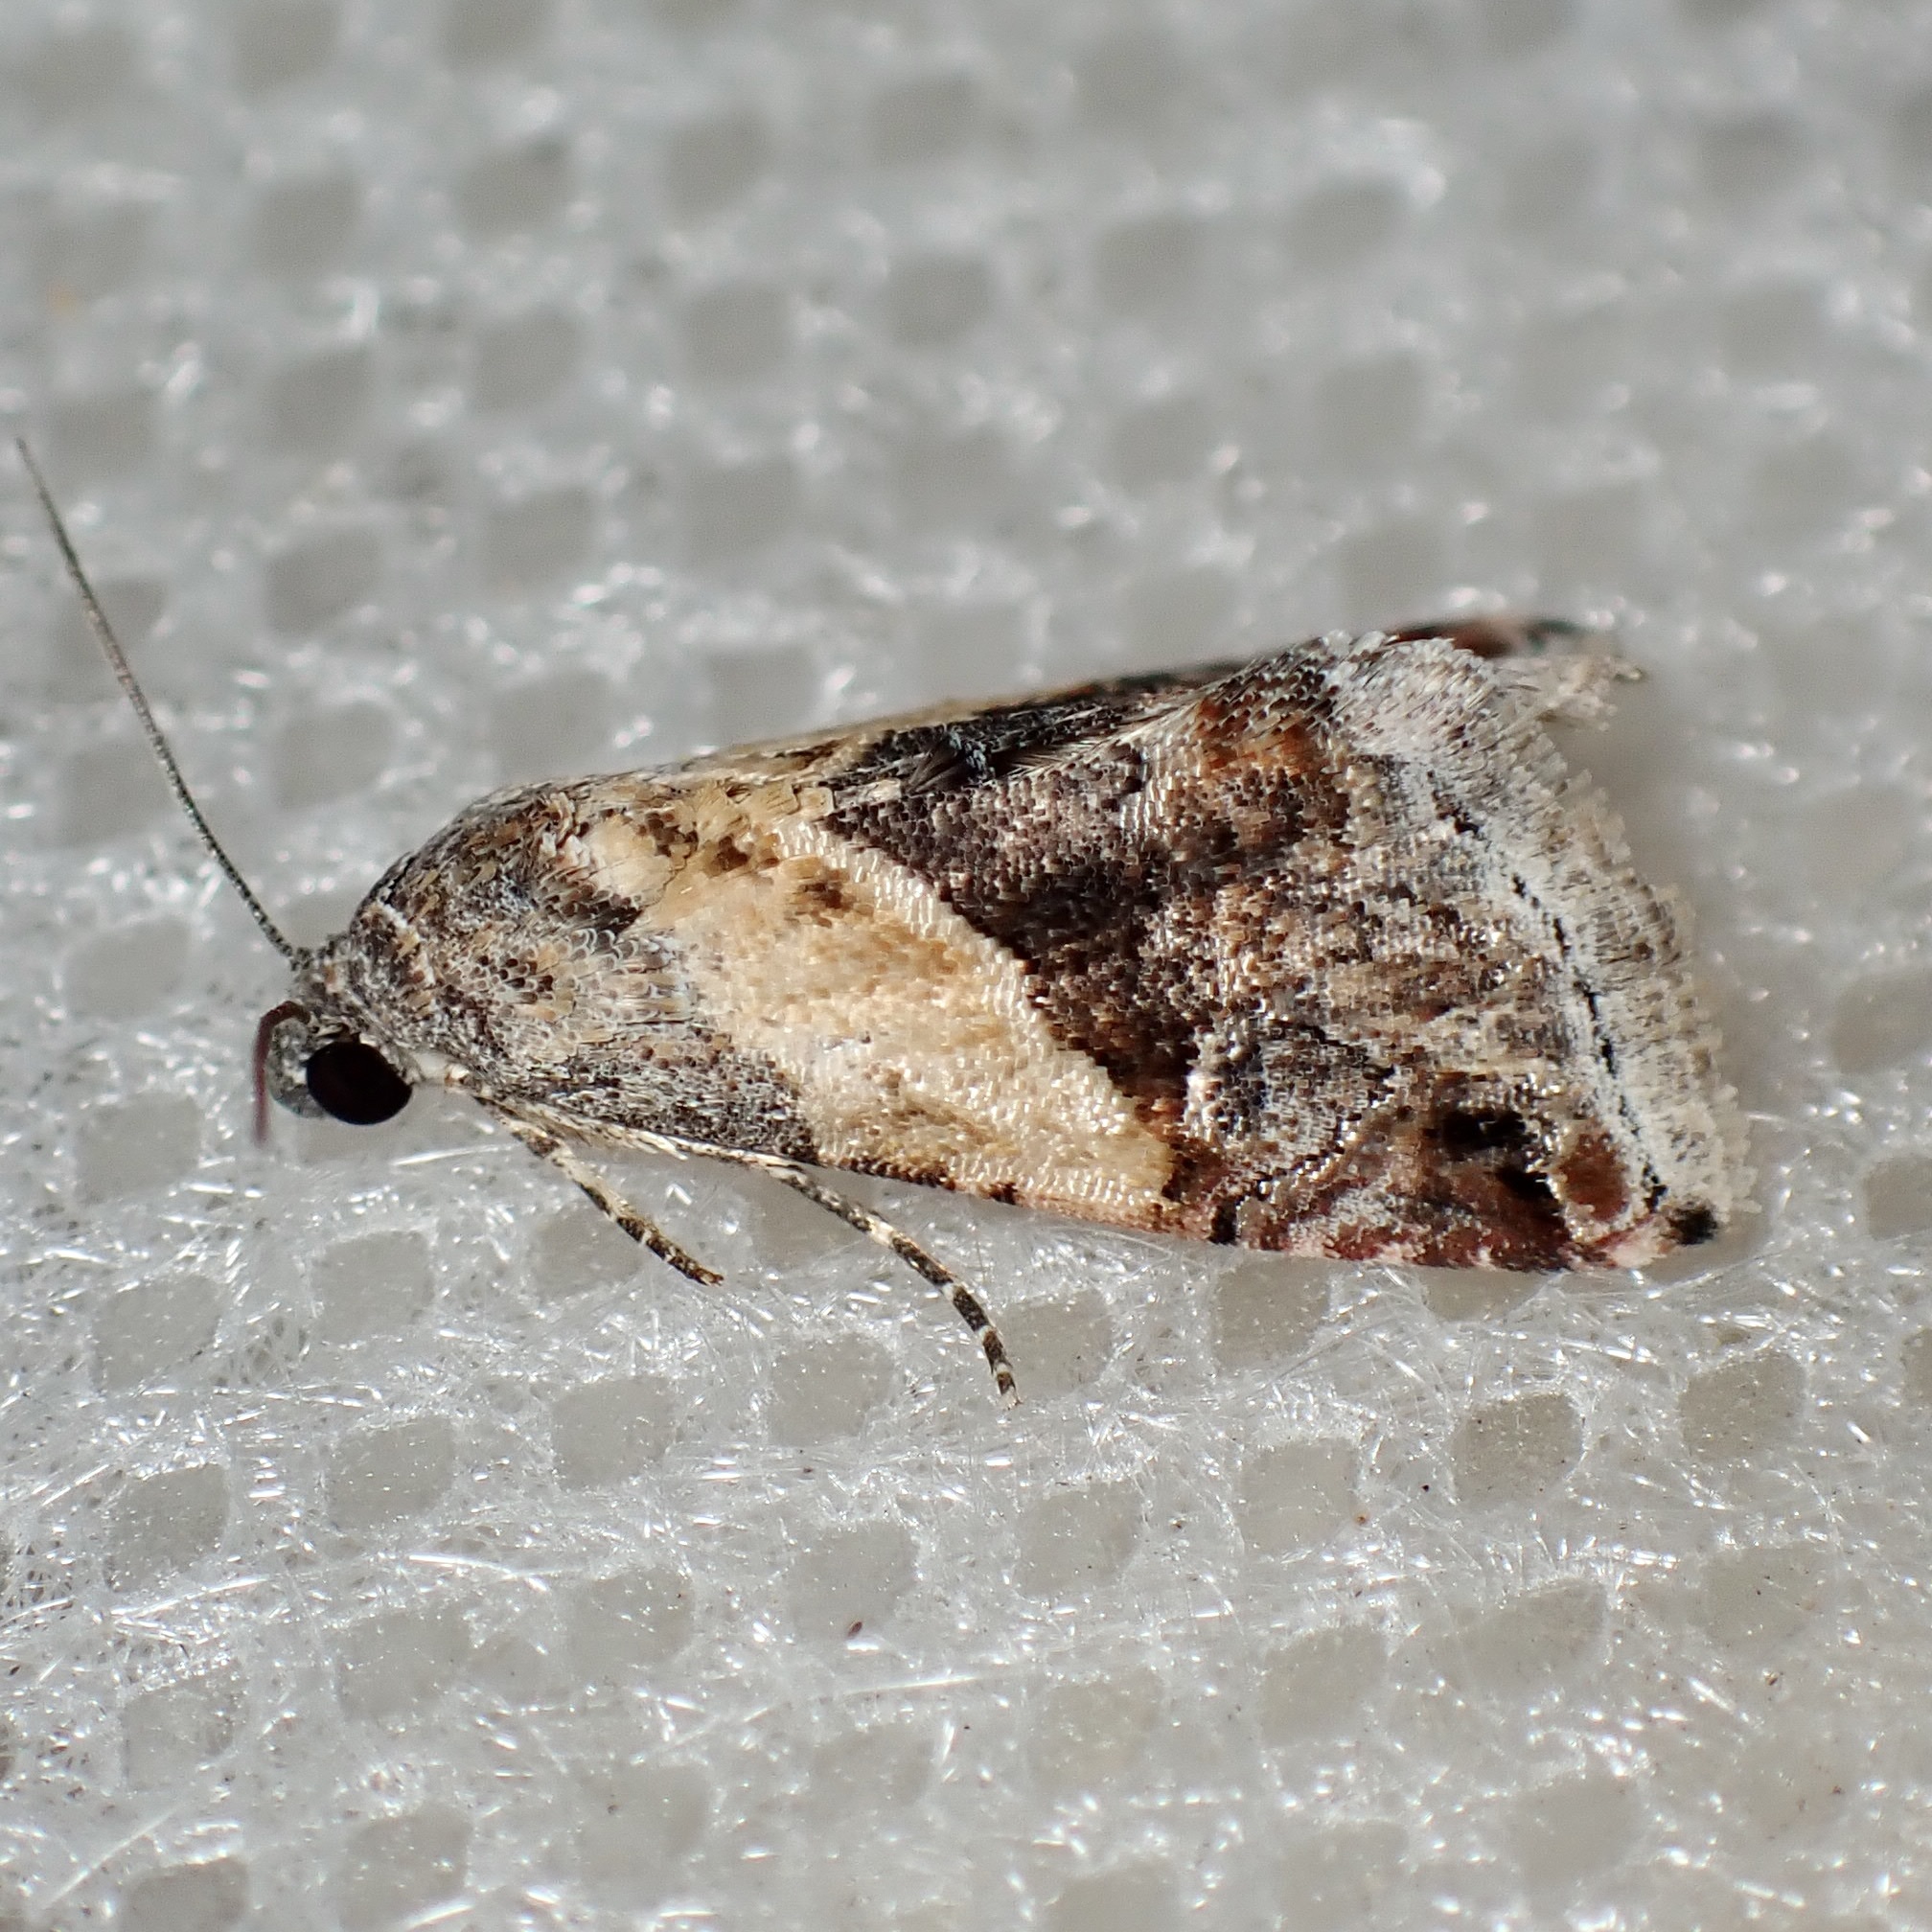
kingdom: Animalia
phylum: Arthropoda
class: Insecta
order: Lepidoptera
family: Noctuidae
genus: Tripudia
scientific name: Tripudia balteata
